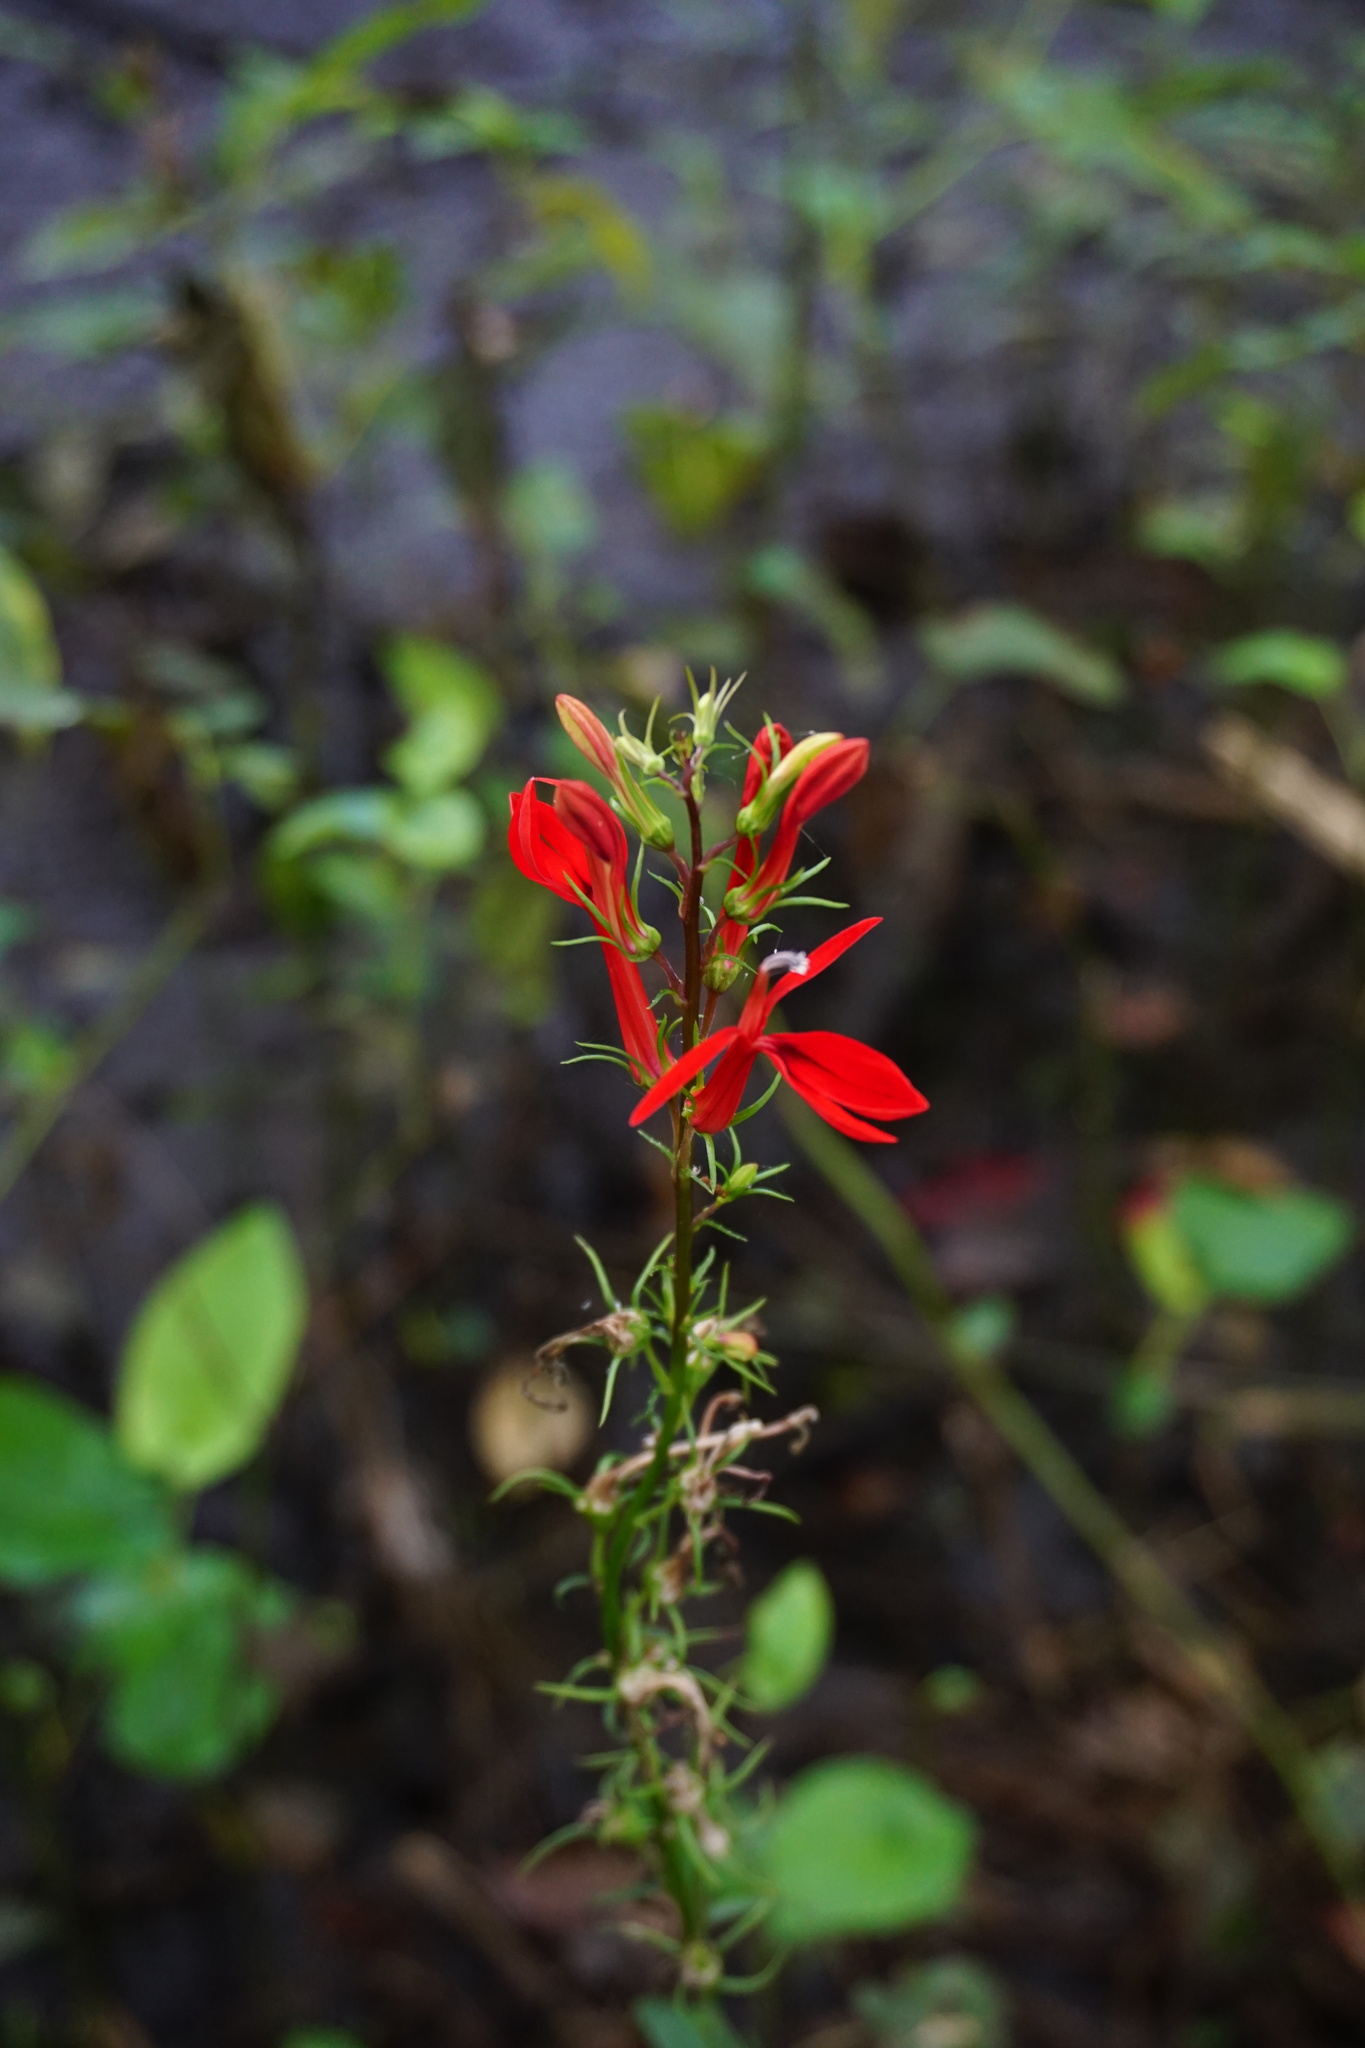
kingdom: Plantae
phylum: Tracheophyta
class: Magnoliopsida
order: Asterales
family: Campanulaceae
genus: Lobelia
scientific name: Lobelia cardinalis
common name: Cardinal flower
